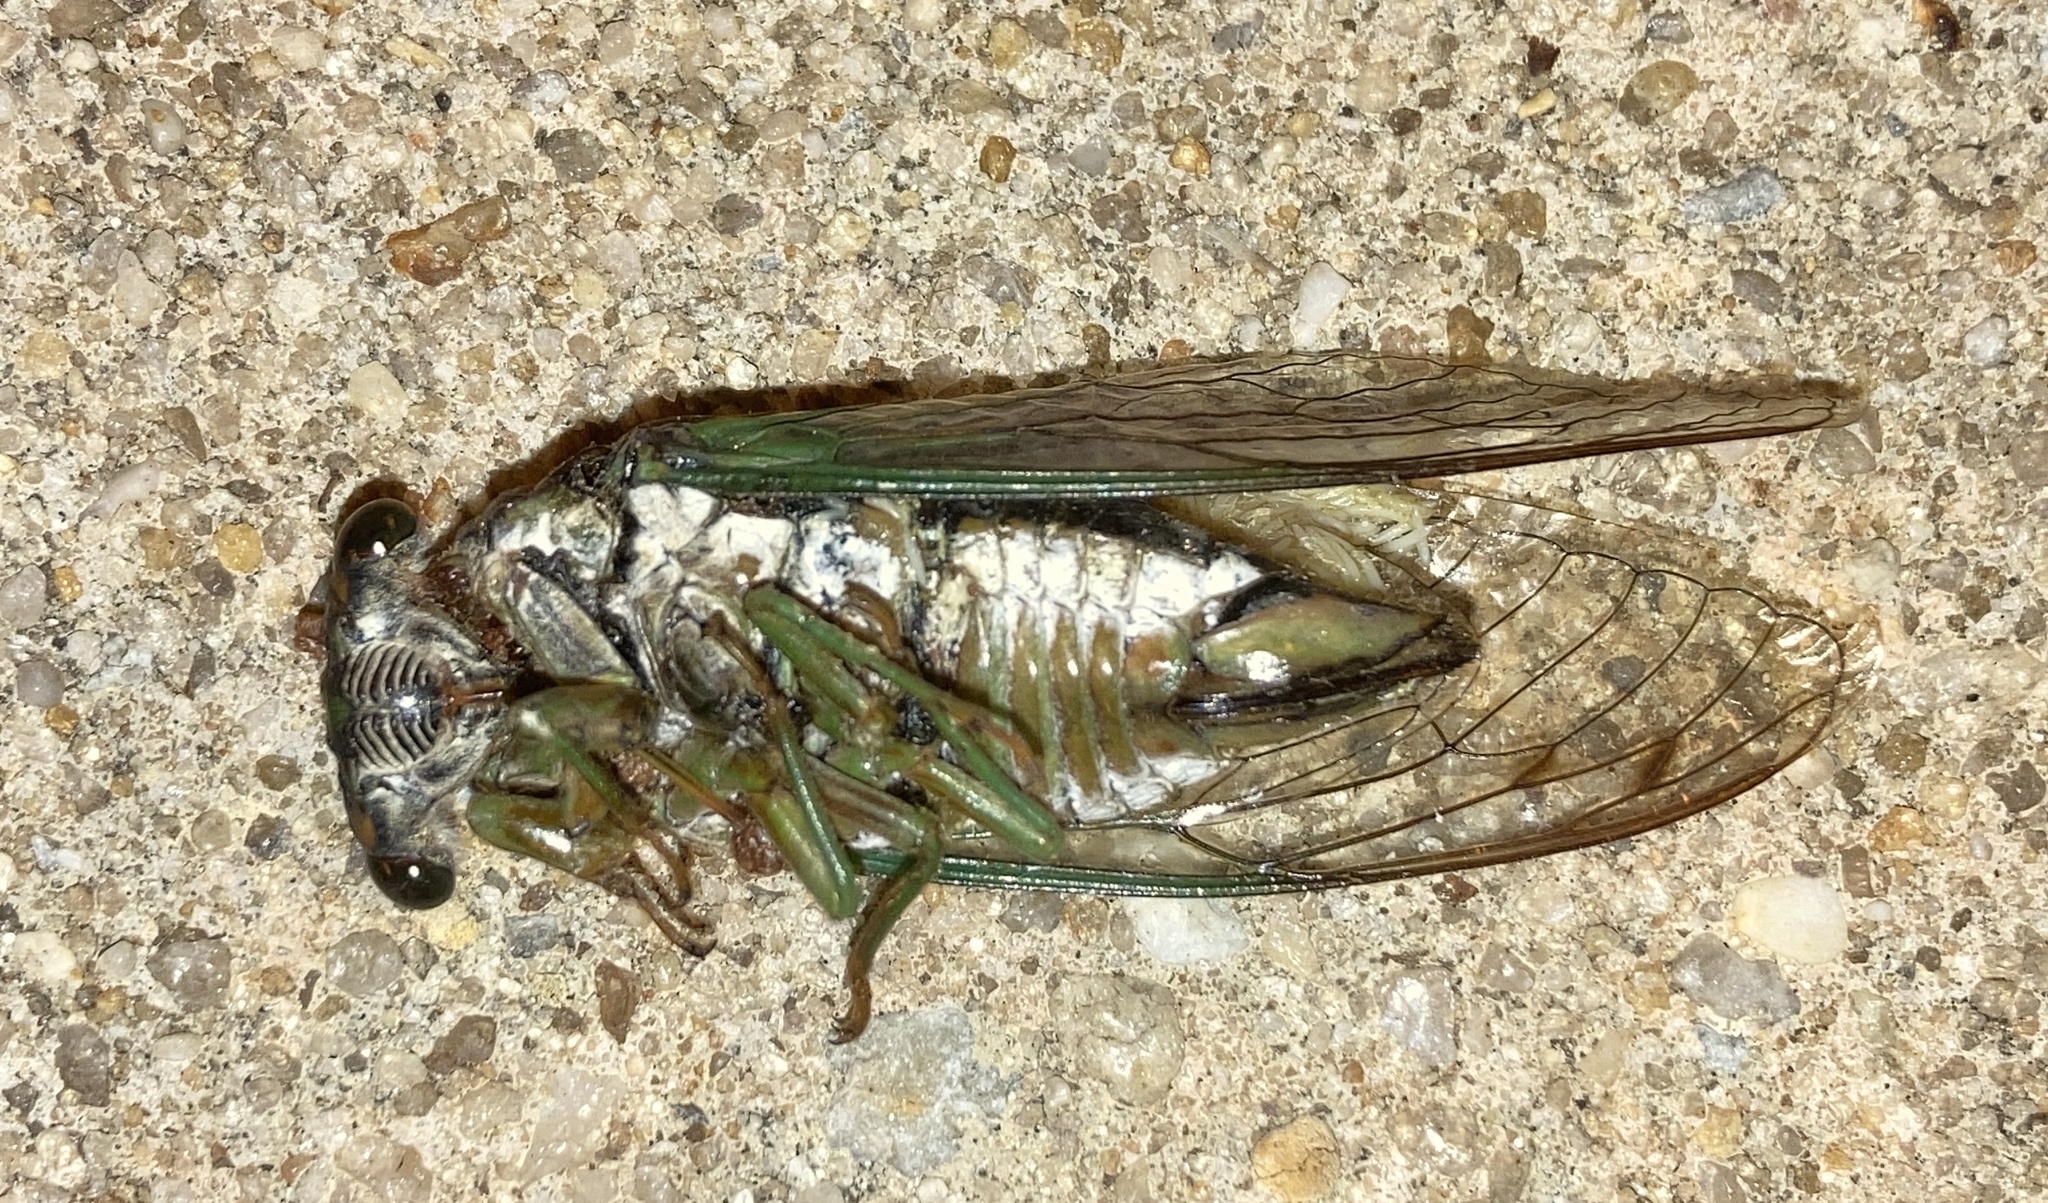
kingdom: Animalia
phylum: Arthropoda
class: Insecta
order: Hemiptera
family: Cicadidae
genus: Neotibicen
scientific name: Neotibicen tibicen
